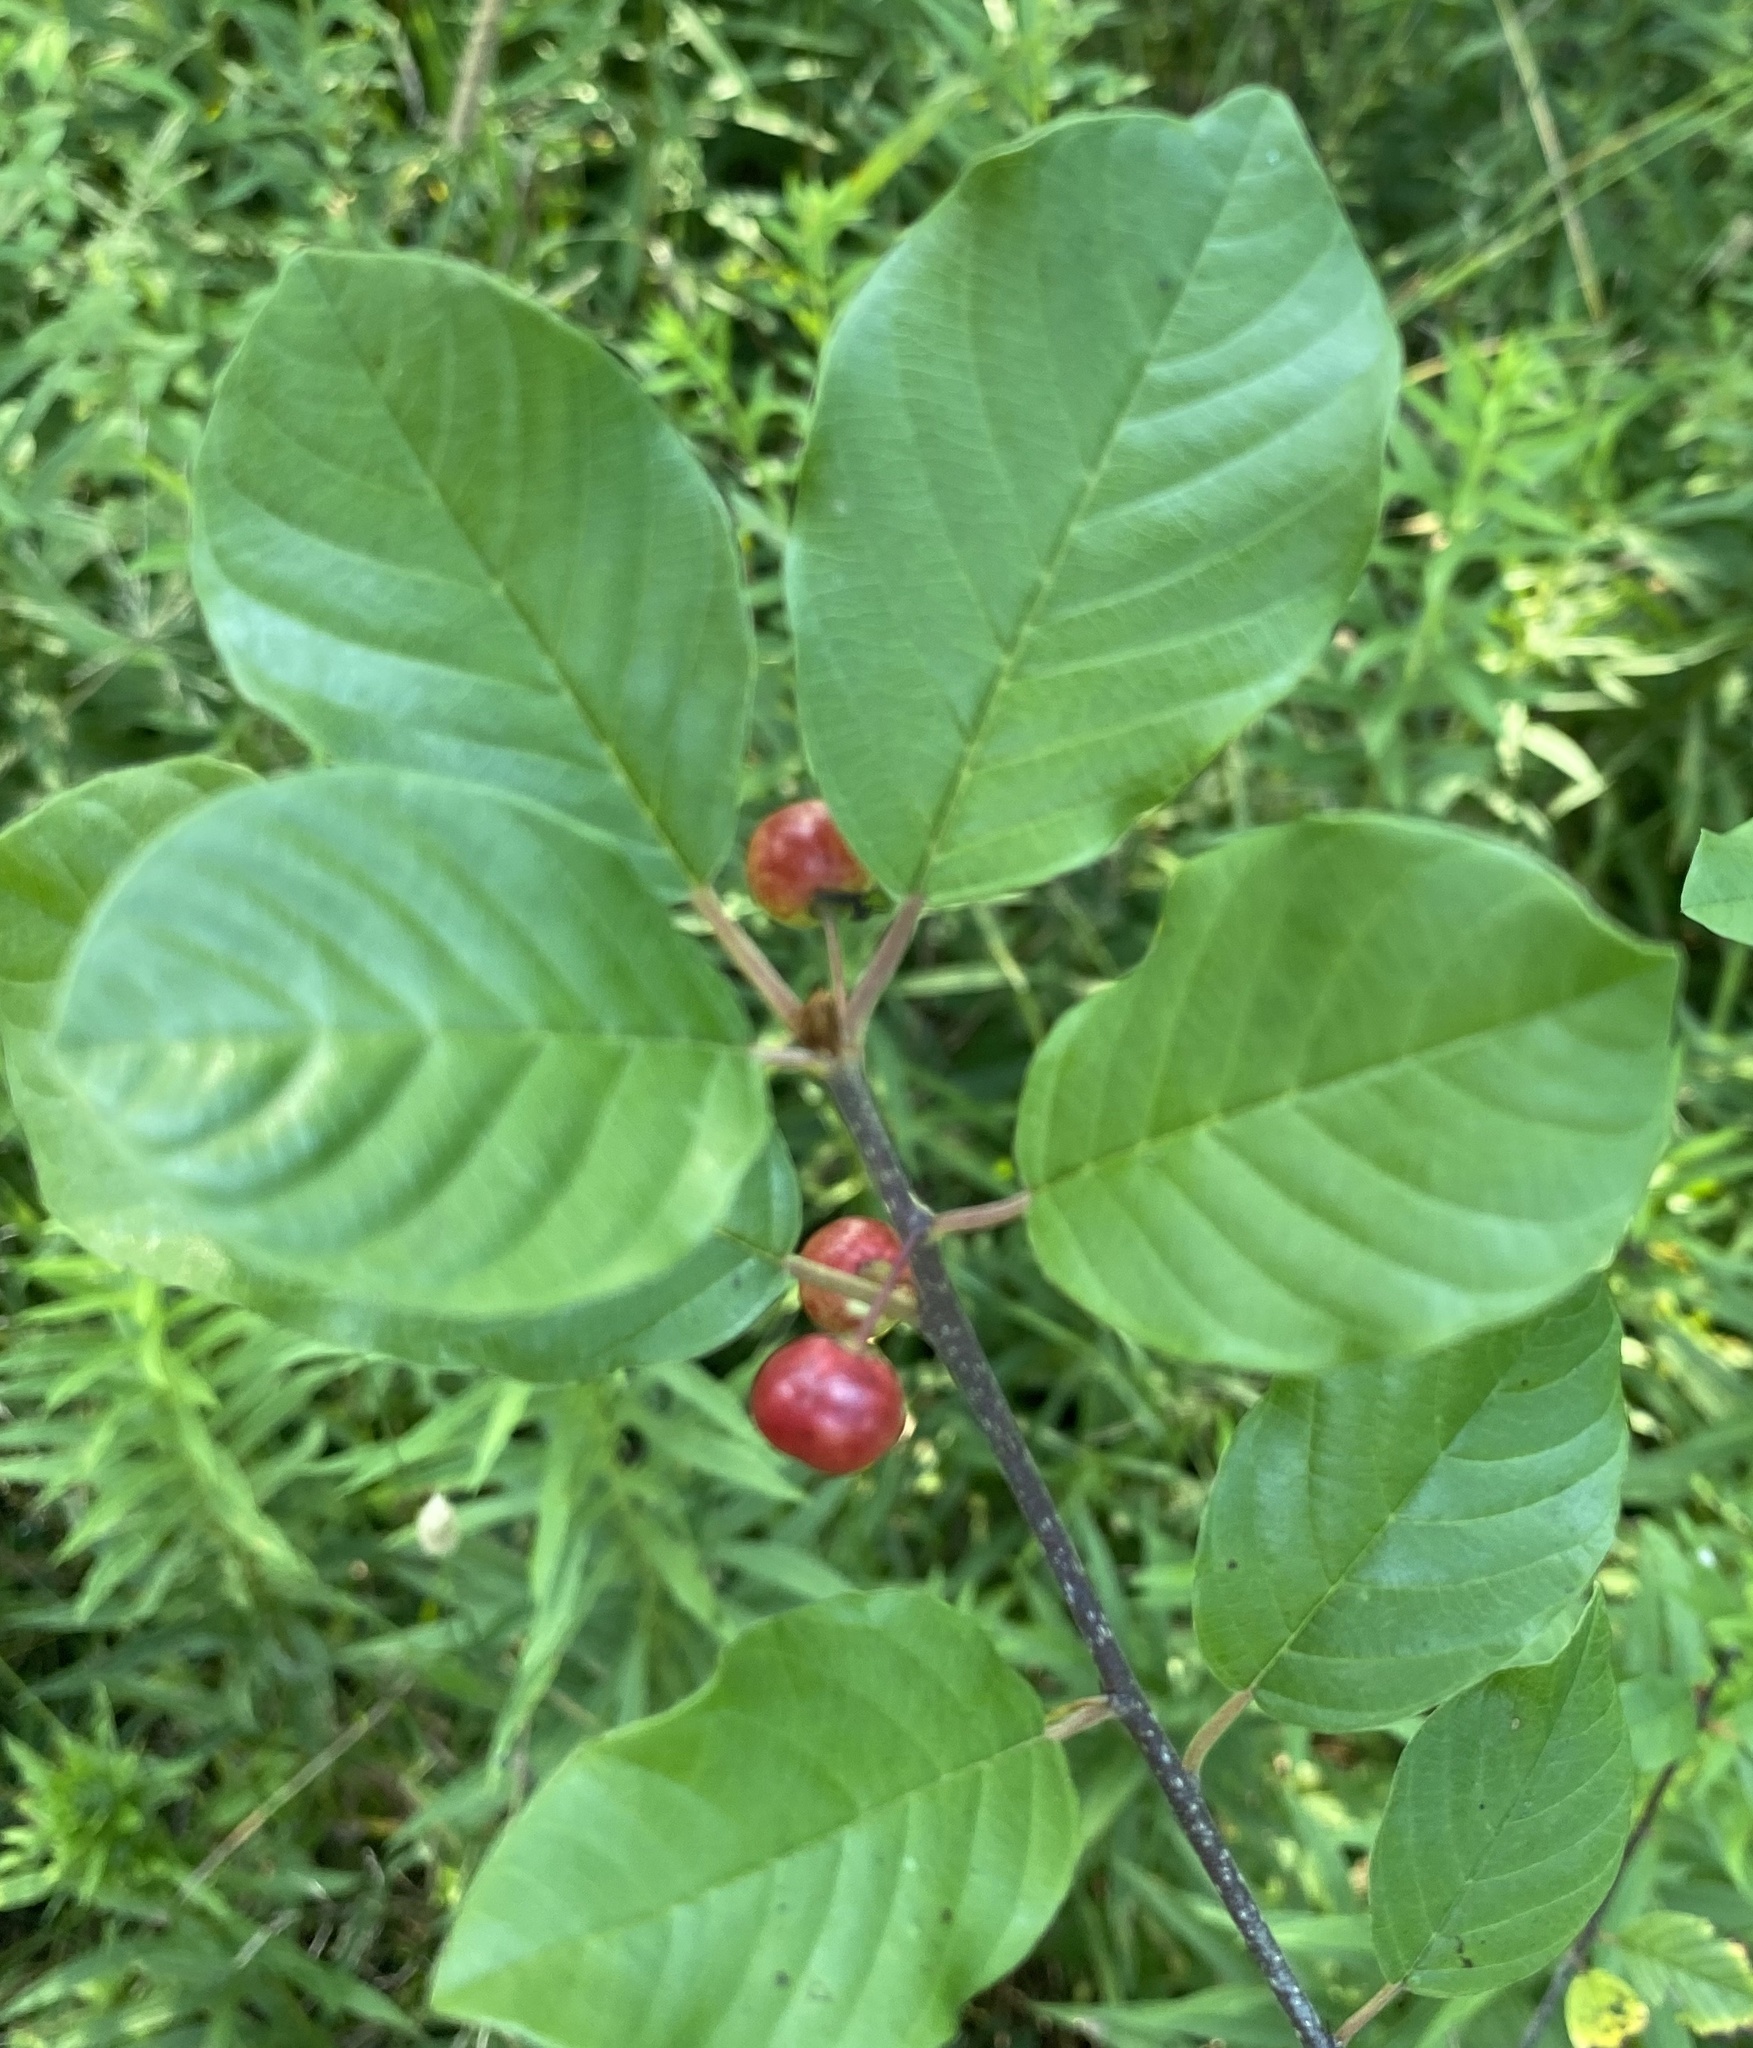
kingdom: Plantae
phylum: Tracheophyta
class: Magnoliopsida
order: Rosales
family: Rhamnaceae
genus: Frangula
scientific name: Frangula alnus
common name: Alder buckthorn
